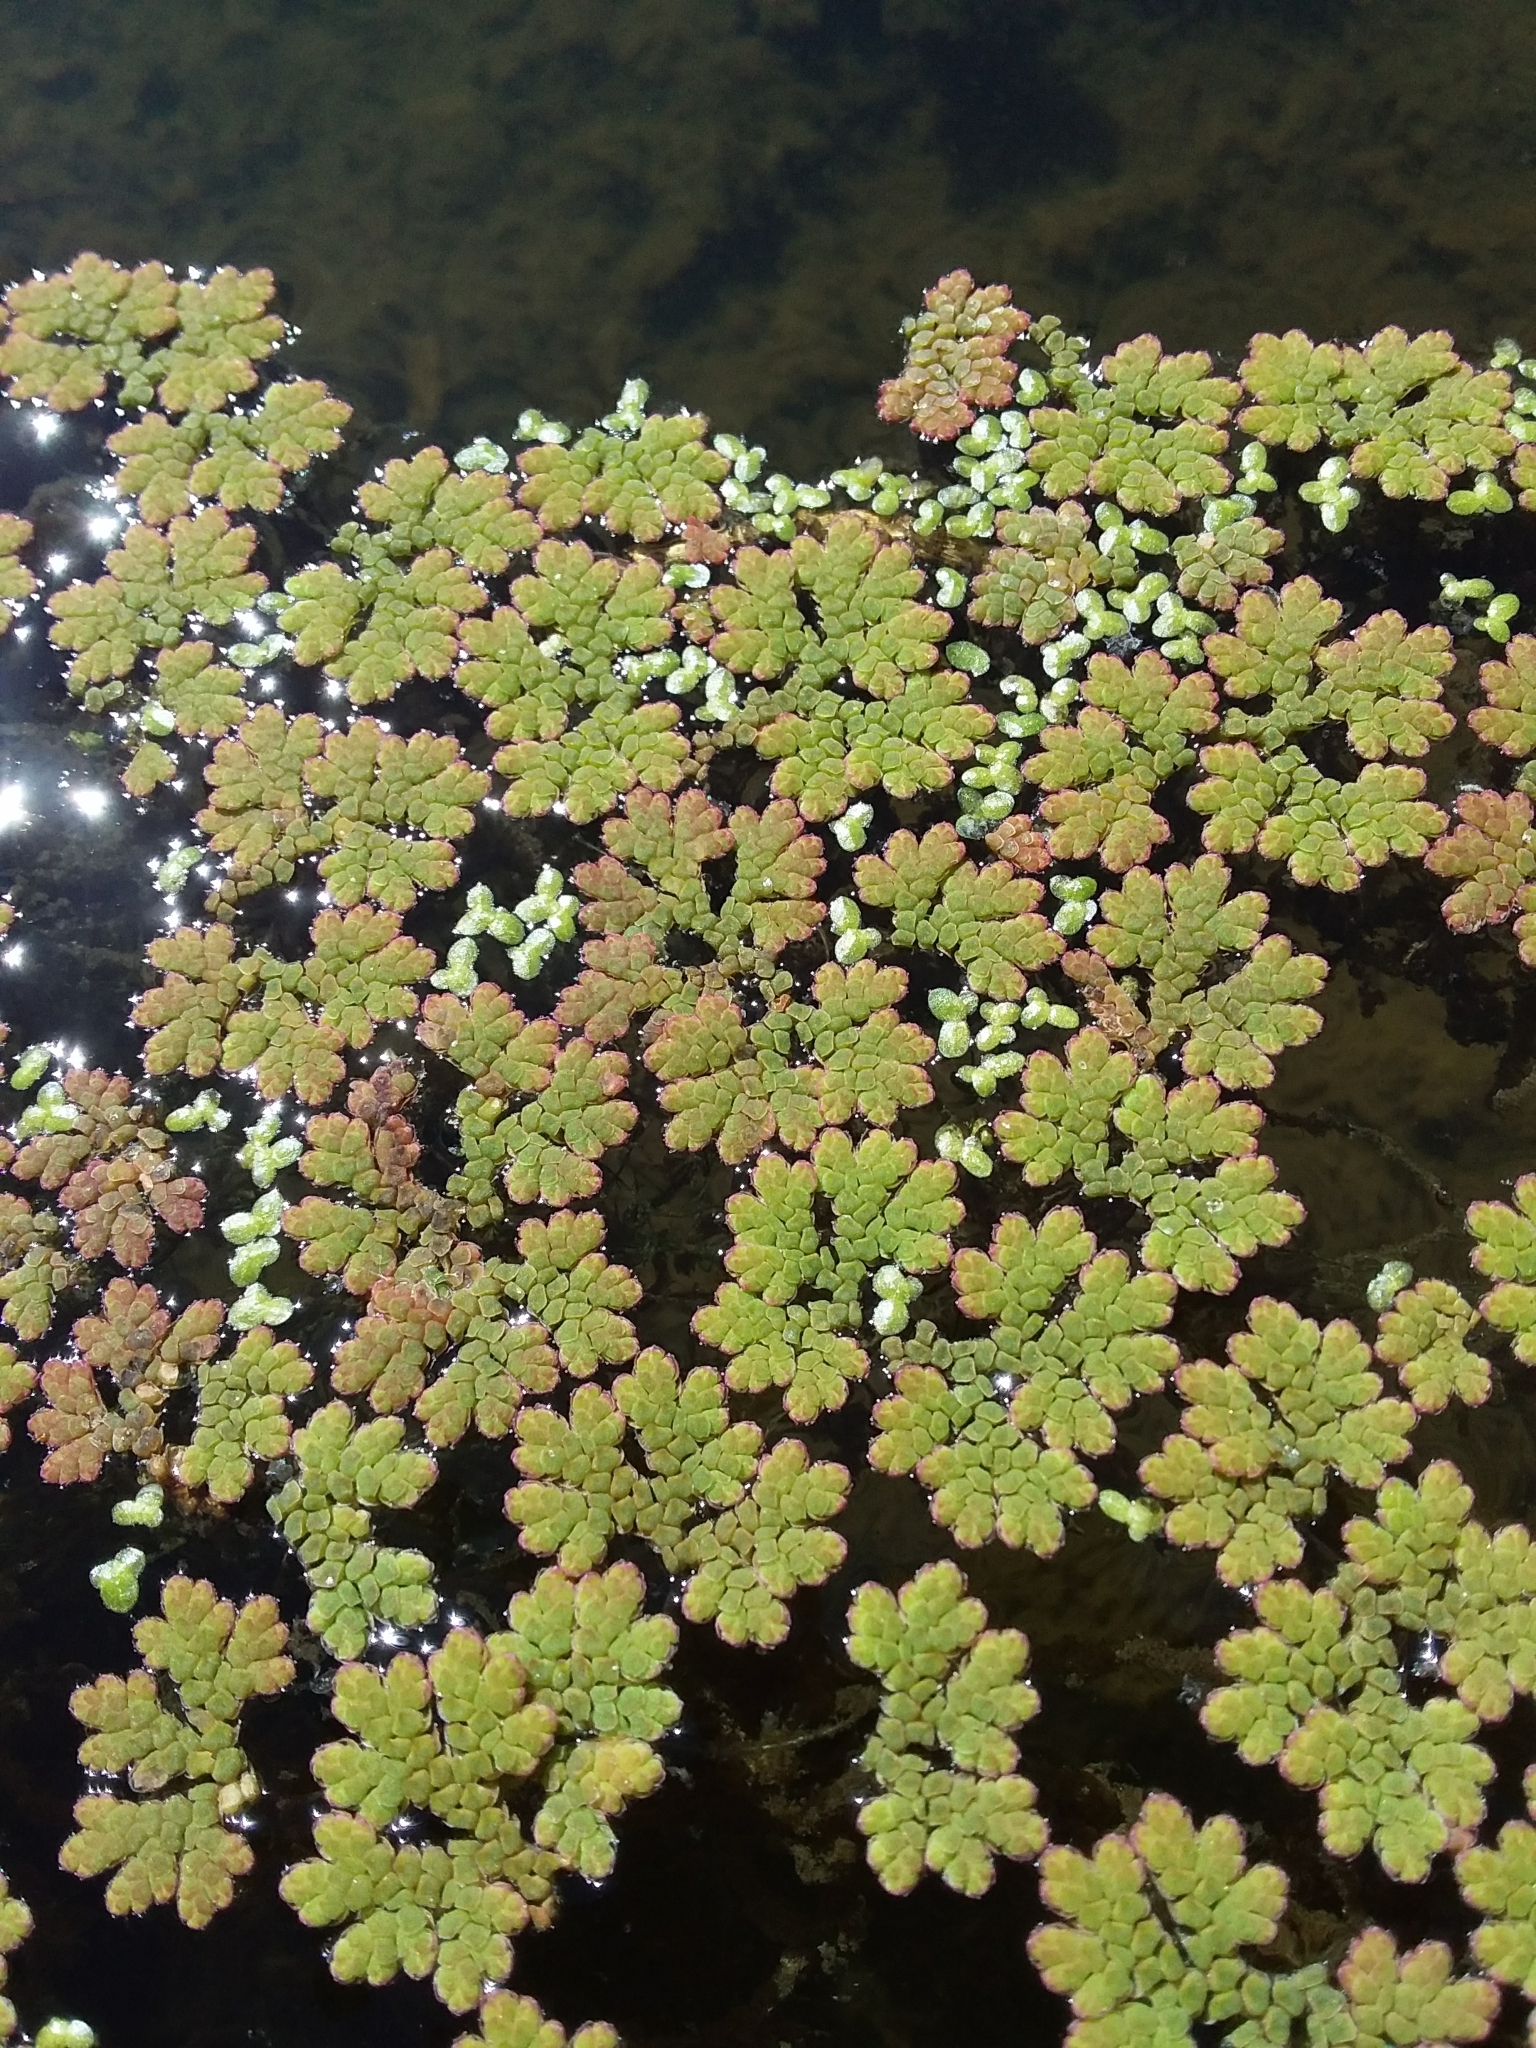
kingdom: Plantae
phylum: Tracheophyta
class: Polypodiopsida
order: Salviniales
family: Salviniaceae
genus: Azolla
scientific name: Azolla rubra
